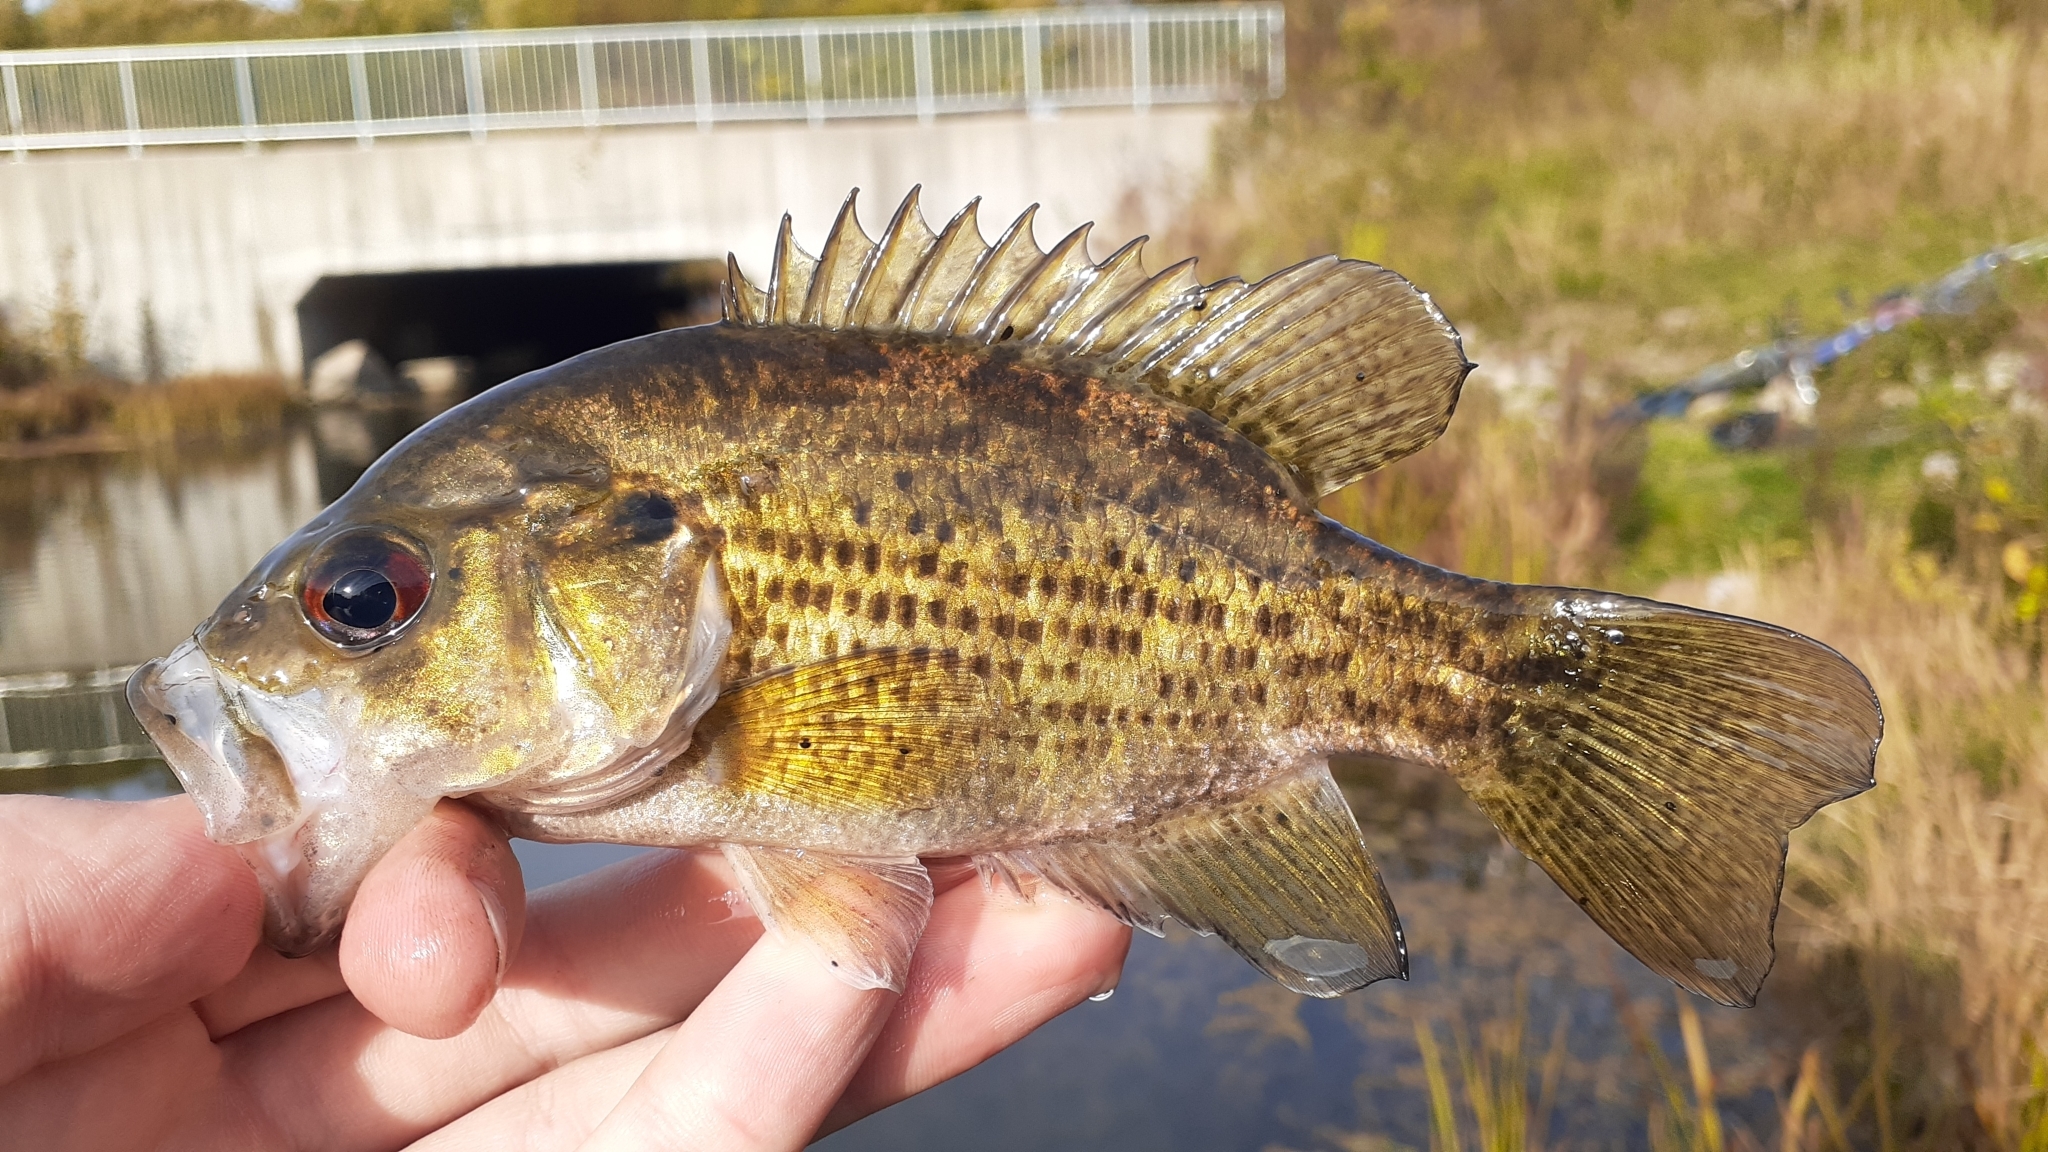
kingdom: Animalia
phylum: Chordata
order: Perciformes
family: Centrarchidae
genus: Ambloplites
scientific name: Ambloplites rupestris
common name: Rock bass
